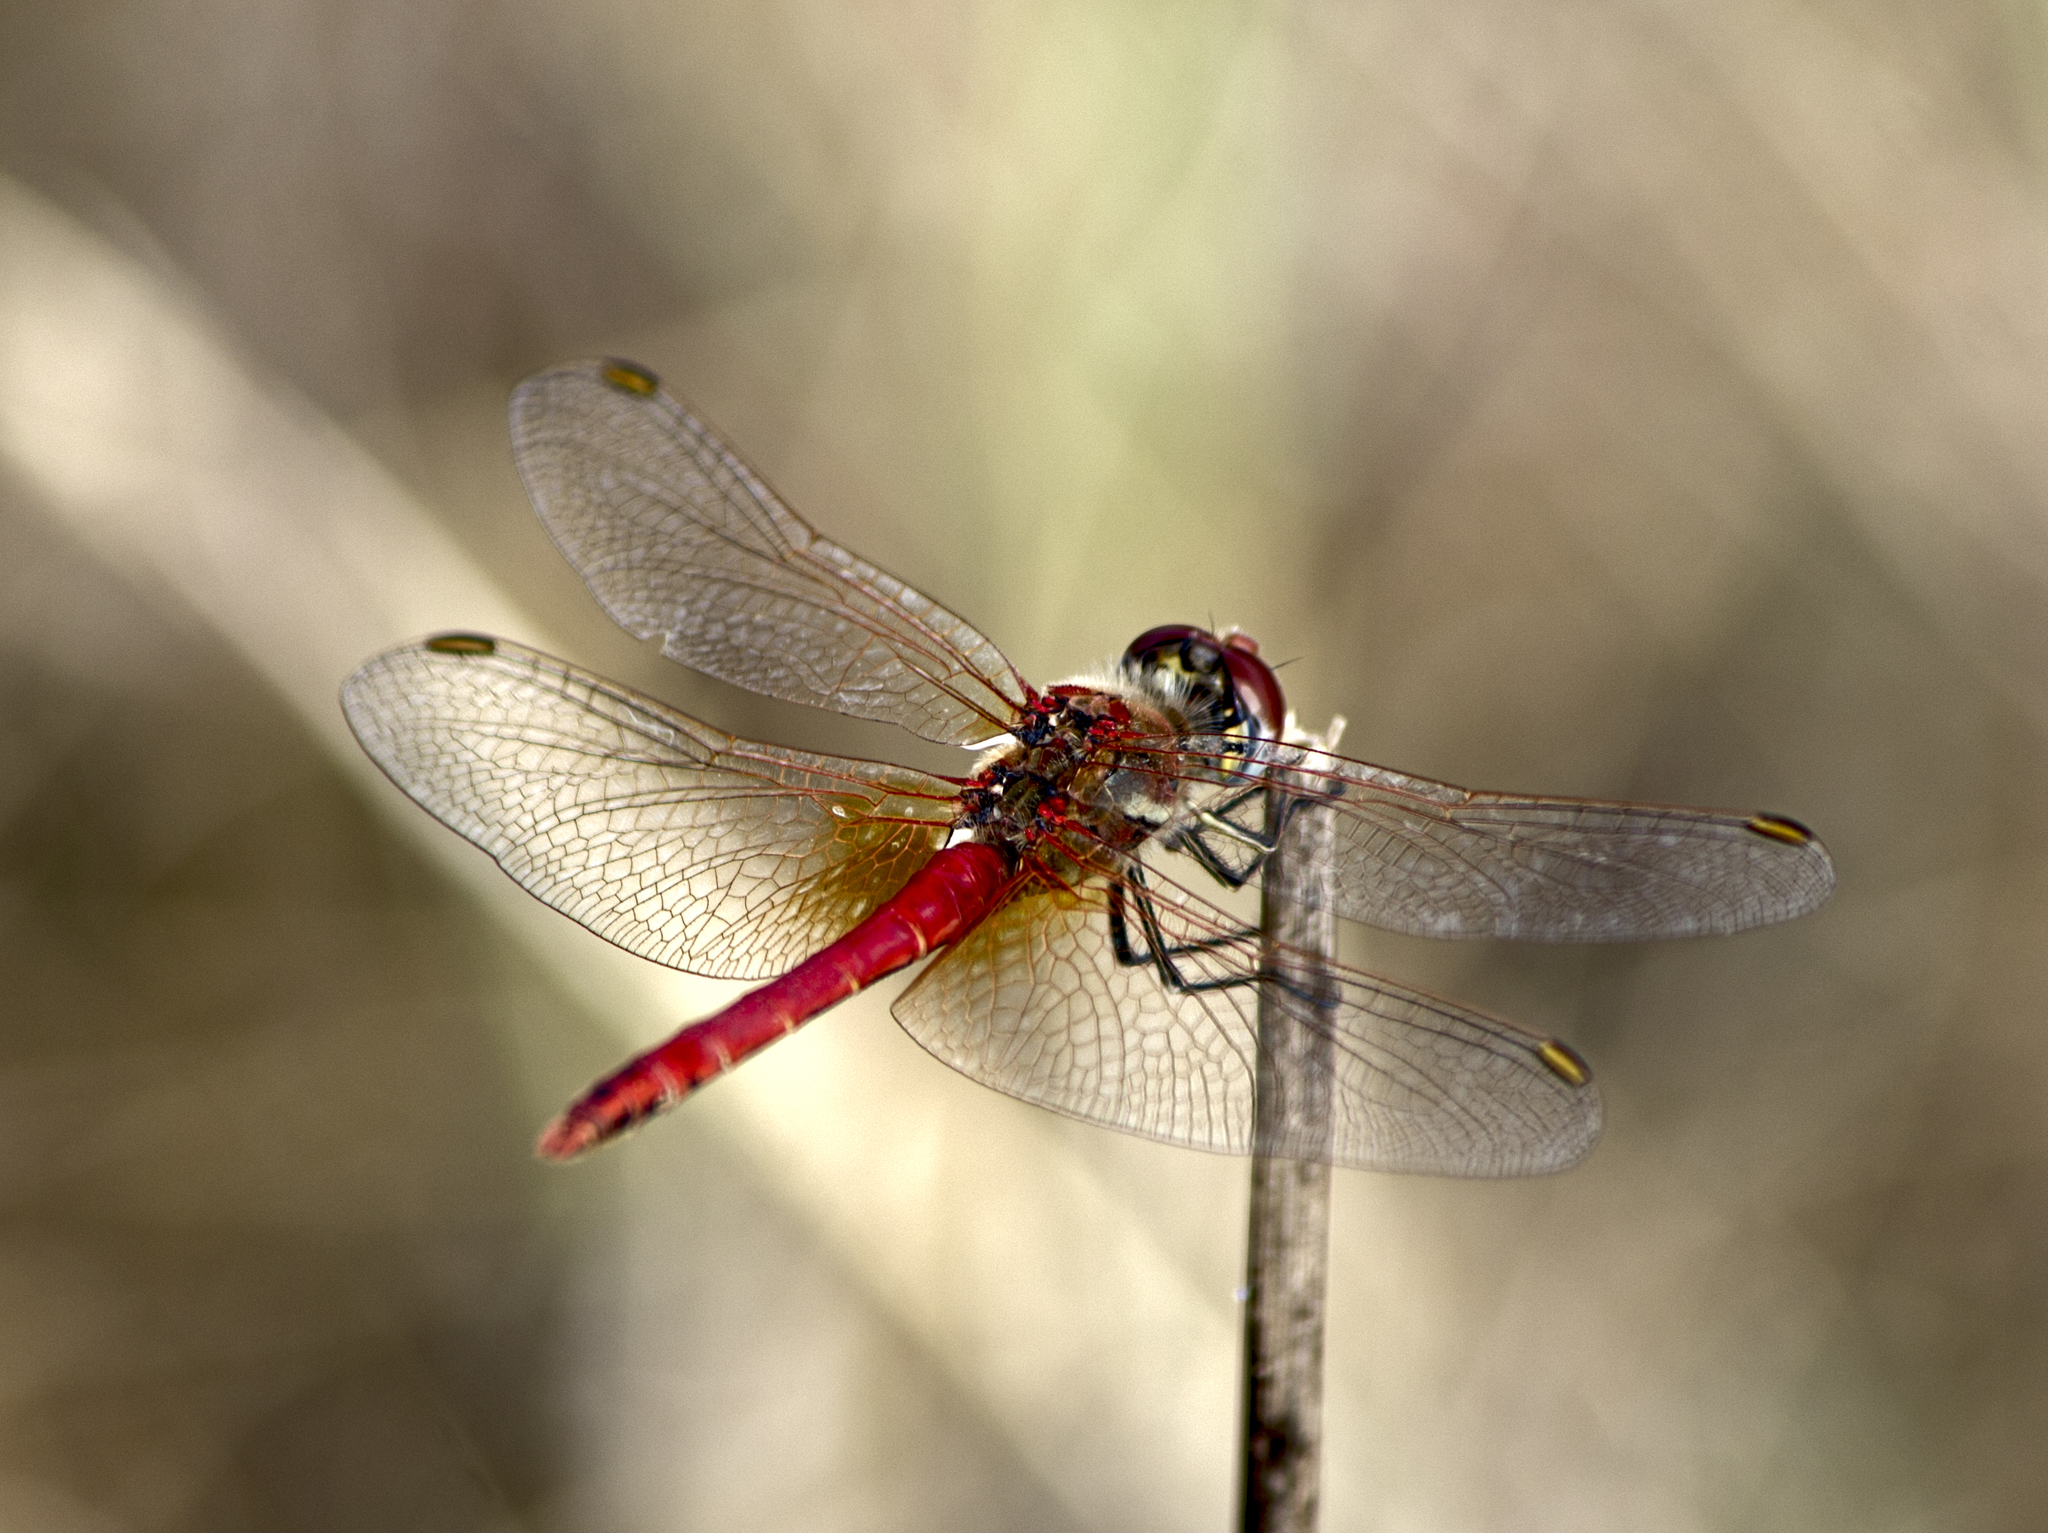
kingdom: Animalia
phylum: Arthropoda
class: Insecta
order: Odonata
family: Libellulidae
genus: Sympetrum
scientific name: Sympetrum fonscolombii
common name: Red-veined darter
